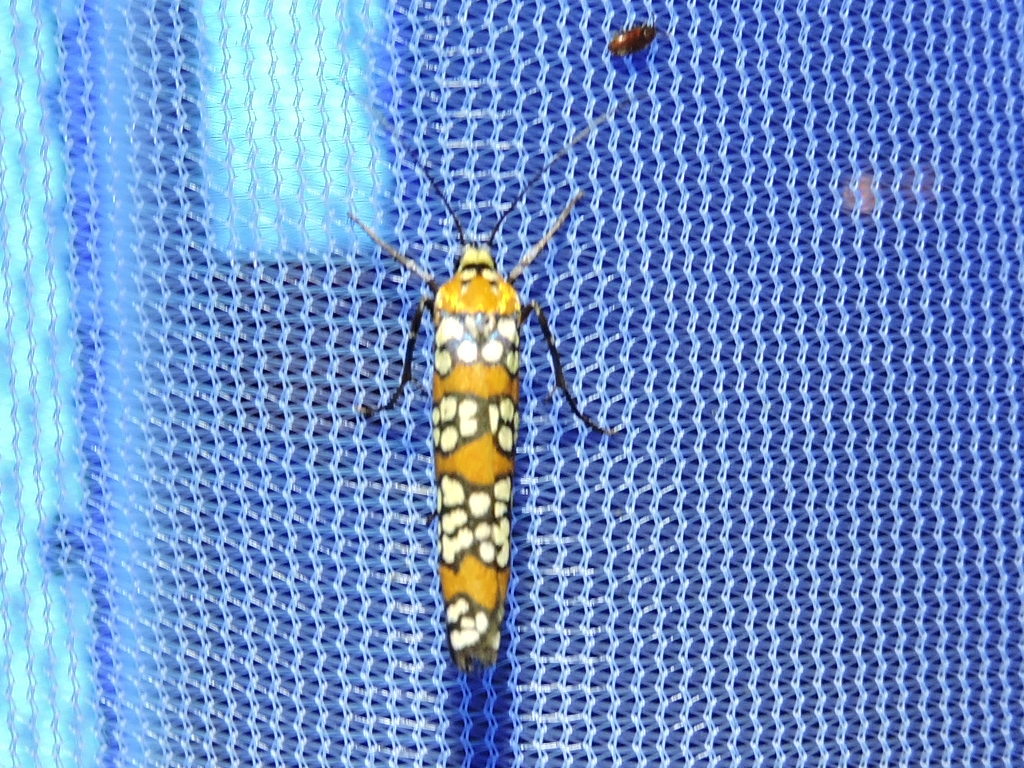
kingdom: Animalia
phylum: Arthropoda
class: Insecta
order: Lepidoptera
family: Attevidae
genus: Atteva
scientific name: Atteva punctella
